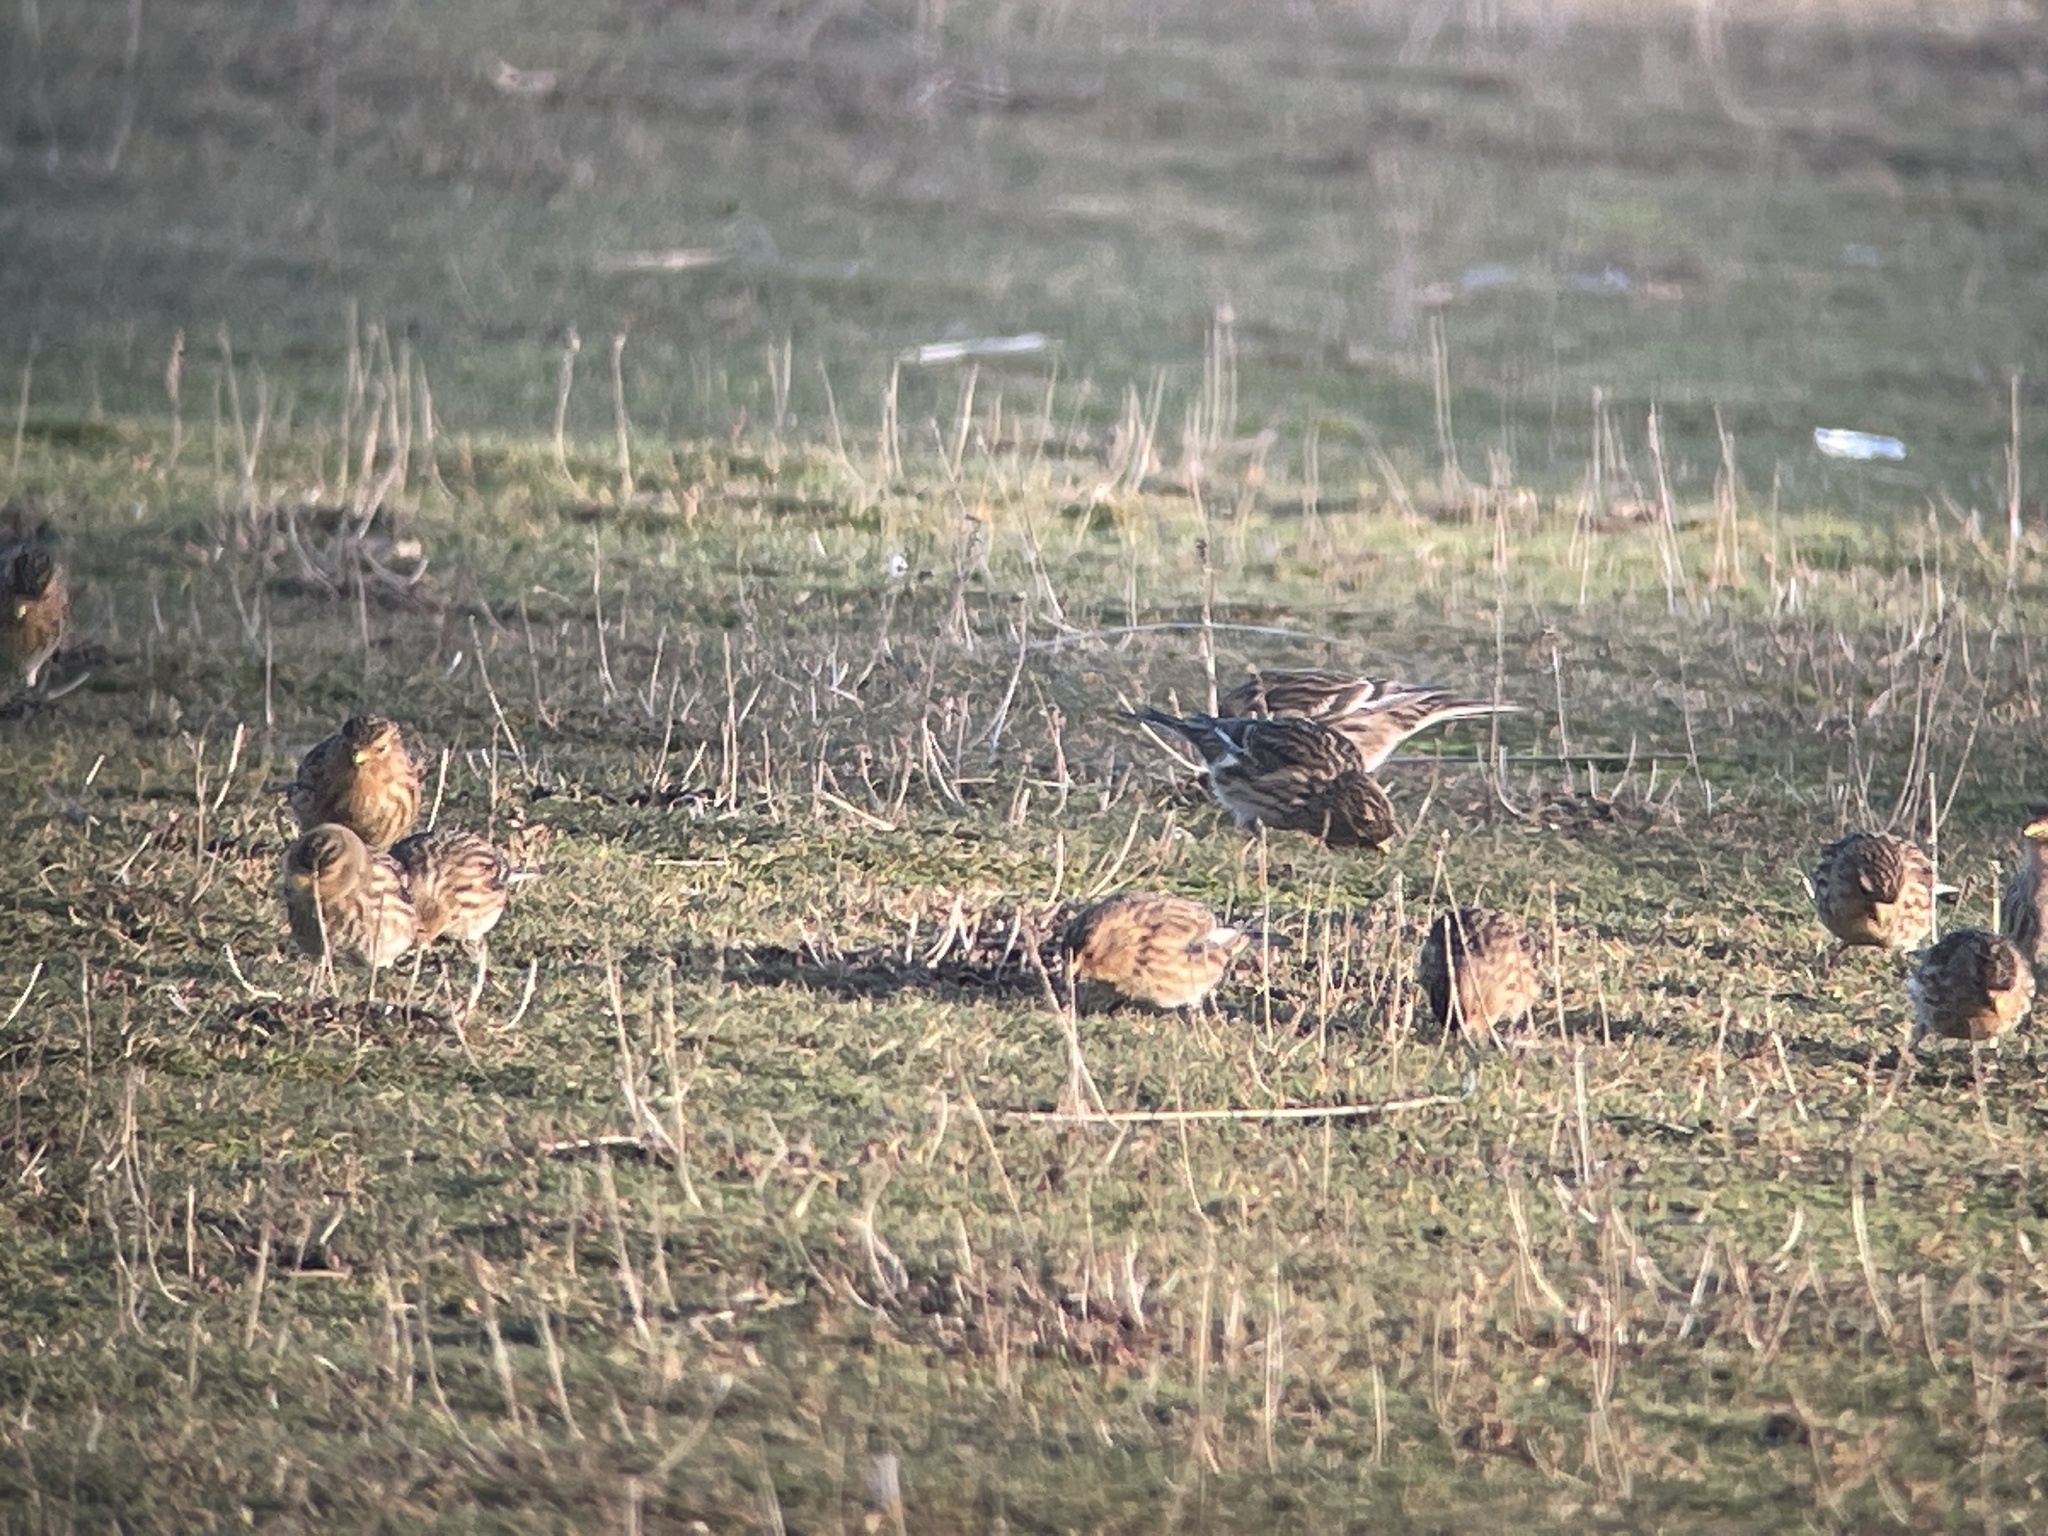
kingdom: Animalia
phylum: Chordata
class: Aves
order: Passeriformes
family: Fringillidae
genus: Linaria
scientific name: Linaria flavirostris
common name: Twite
